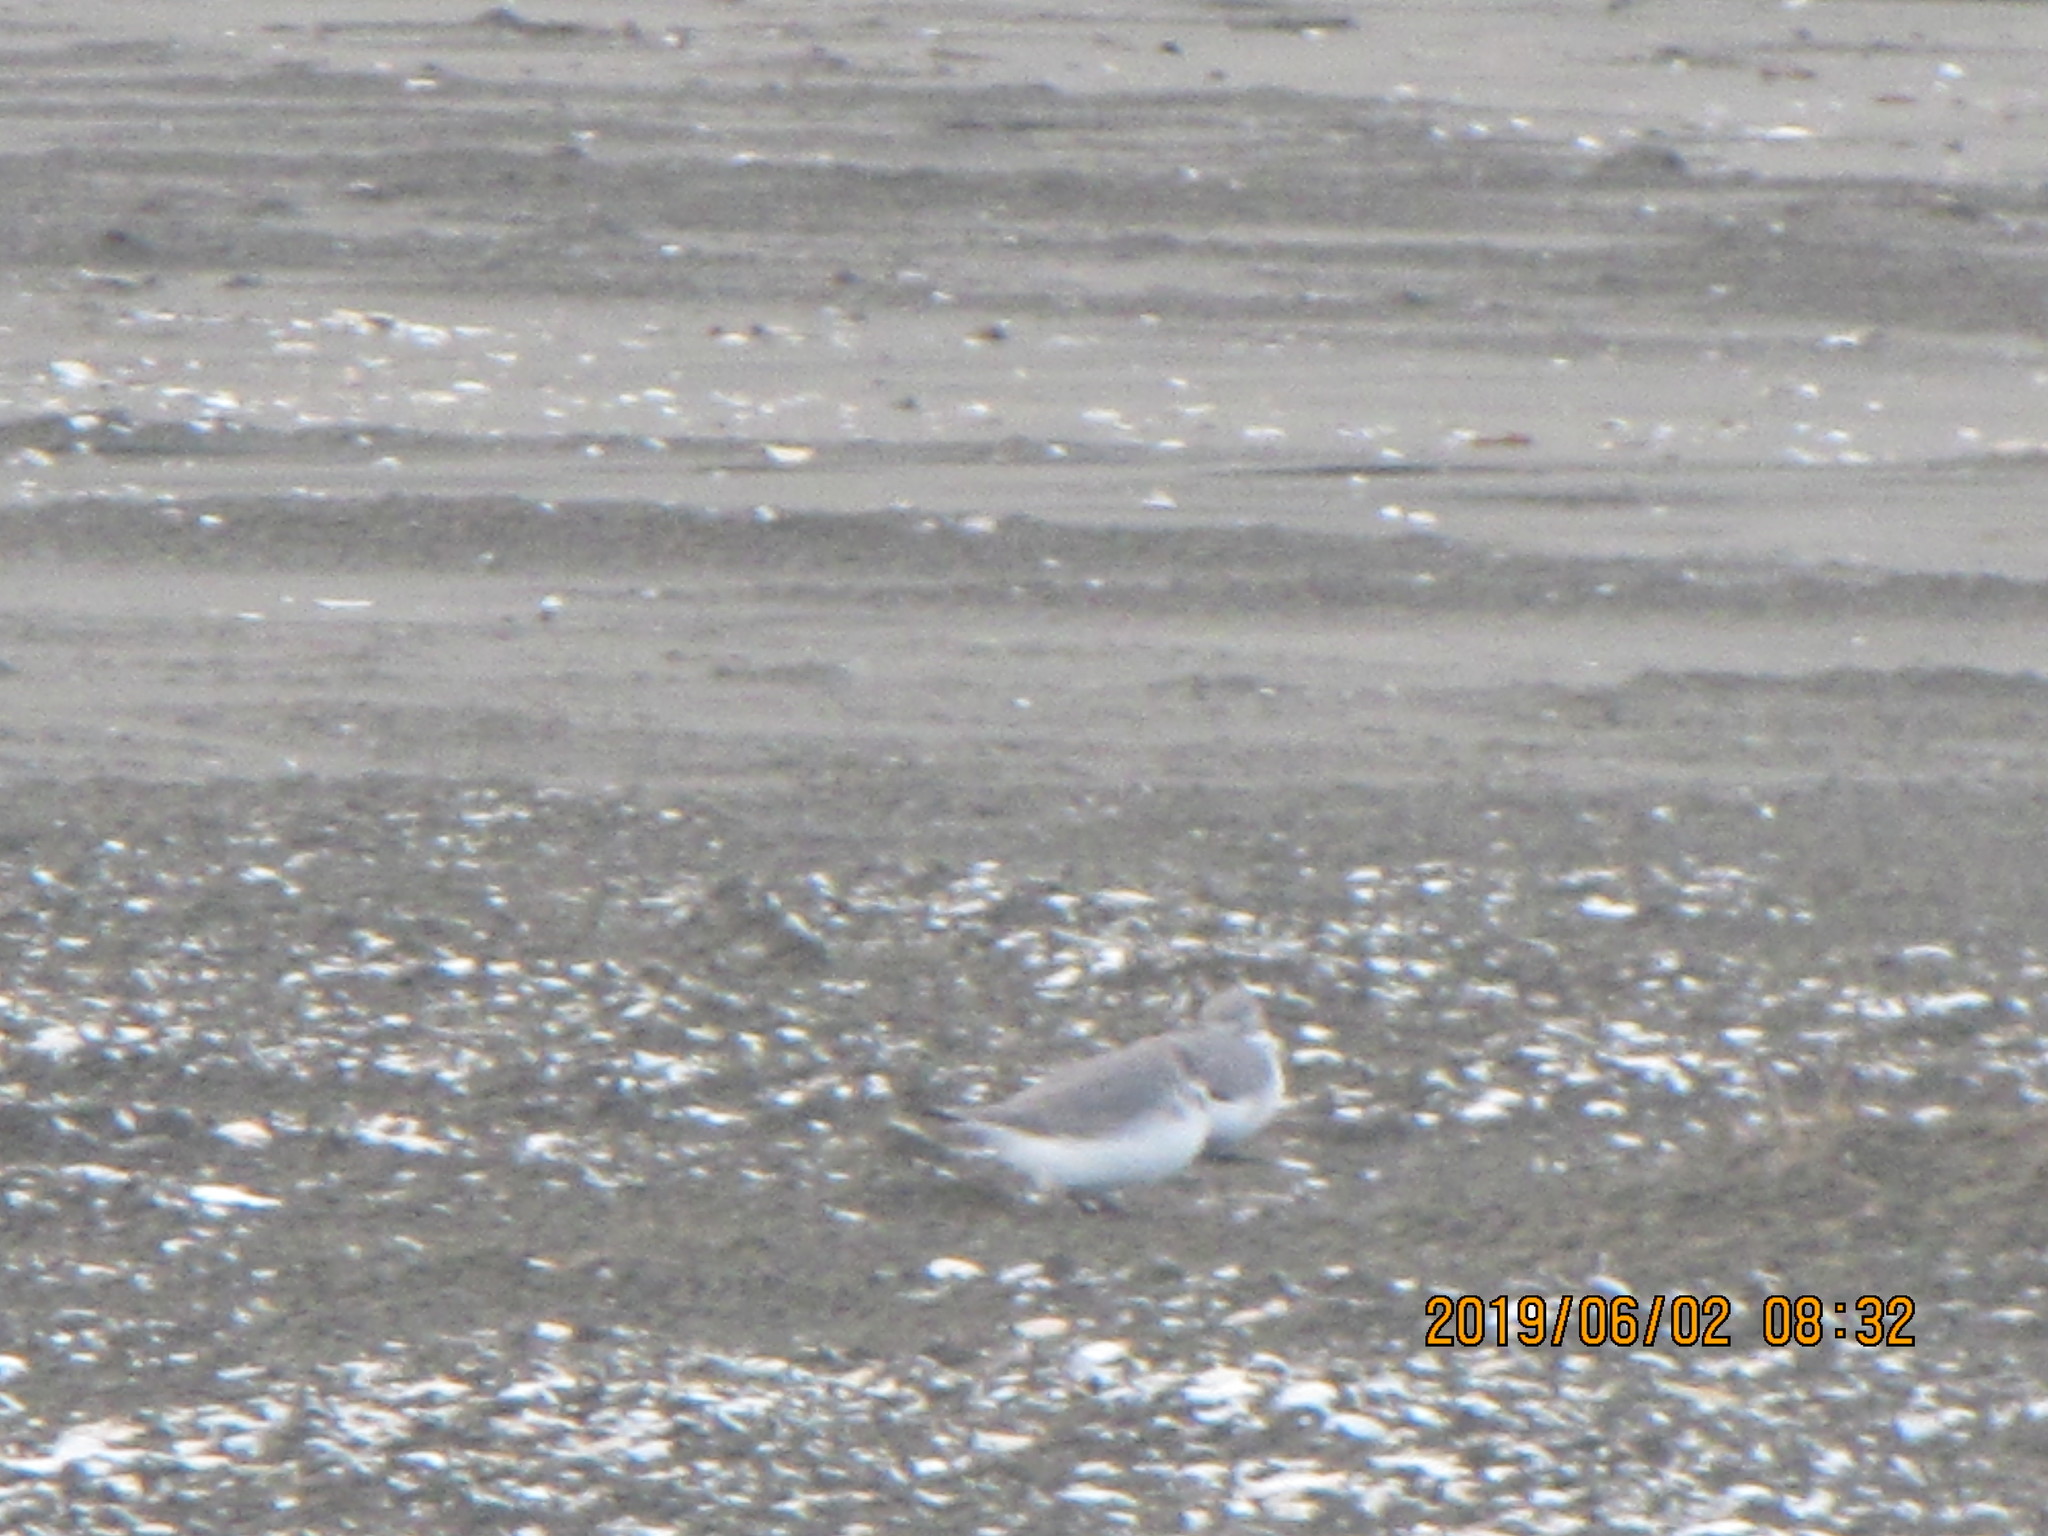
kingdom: Animalia
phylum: Chordata
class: Aves
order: Charadriiformes
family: Charadriidae
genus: Anarhynchus
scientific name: Anarhynchus frontalis
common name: Wrybill
